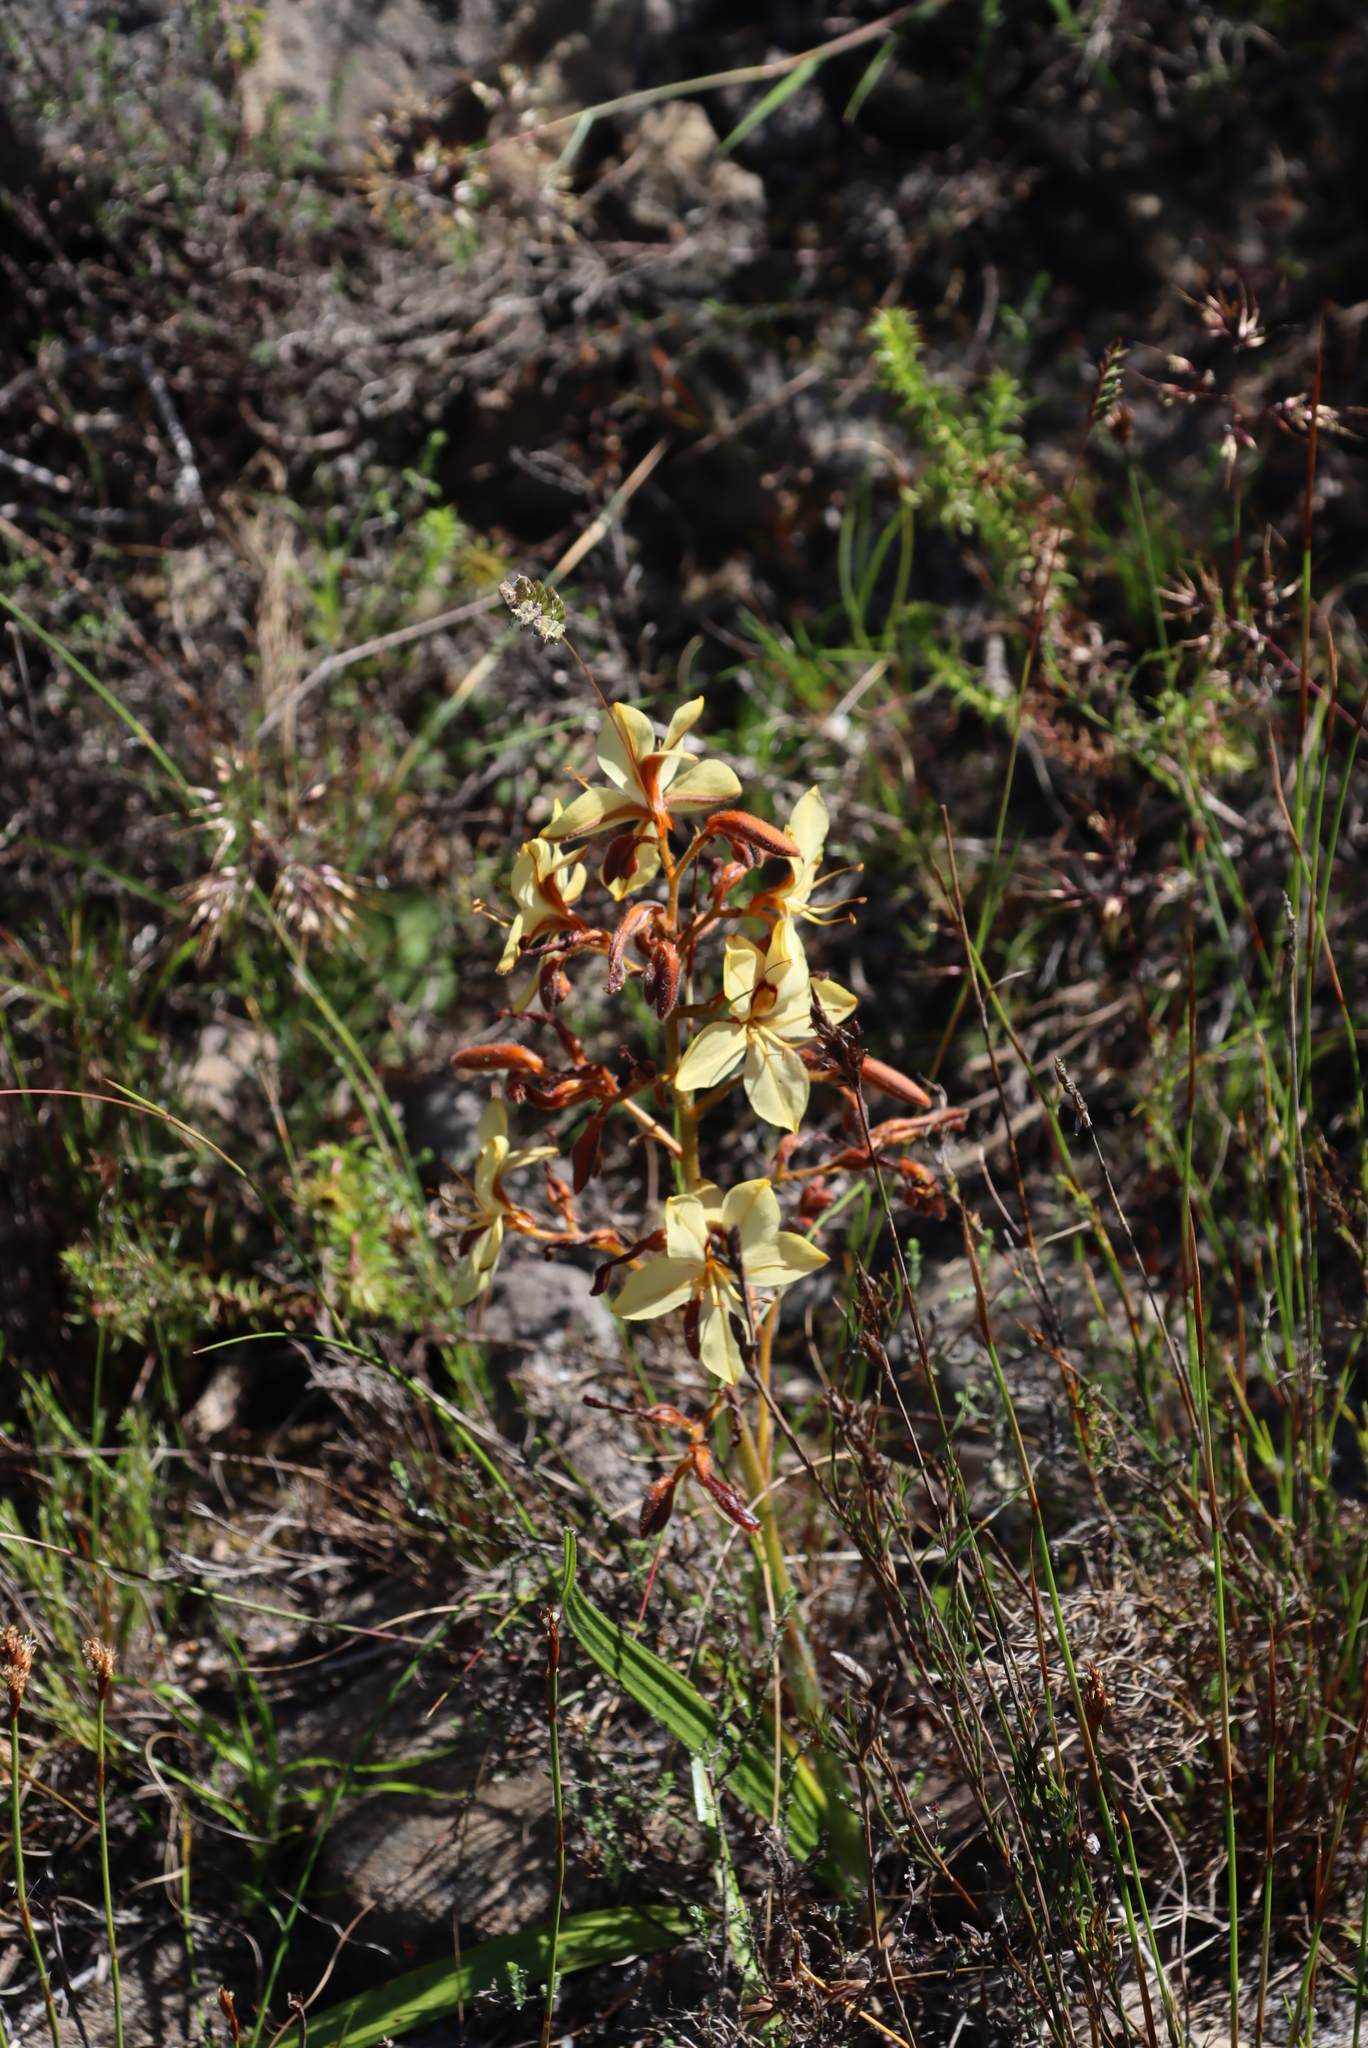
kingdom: Plantae
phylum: Tracheophyta
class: Liliopsida
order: Commelinales
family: Haemodoraceae
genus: Wachendorfia
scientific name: Wachendorfia paniculata
